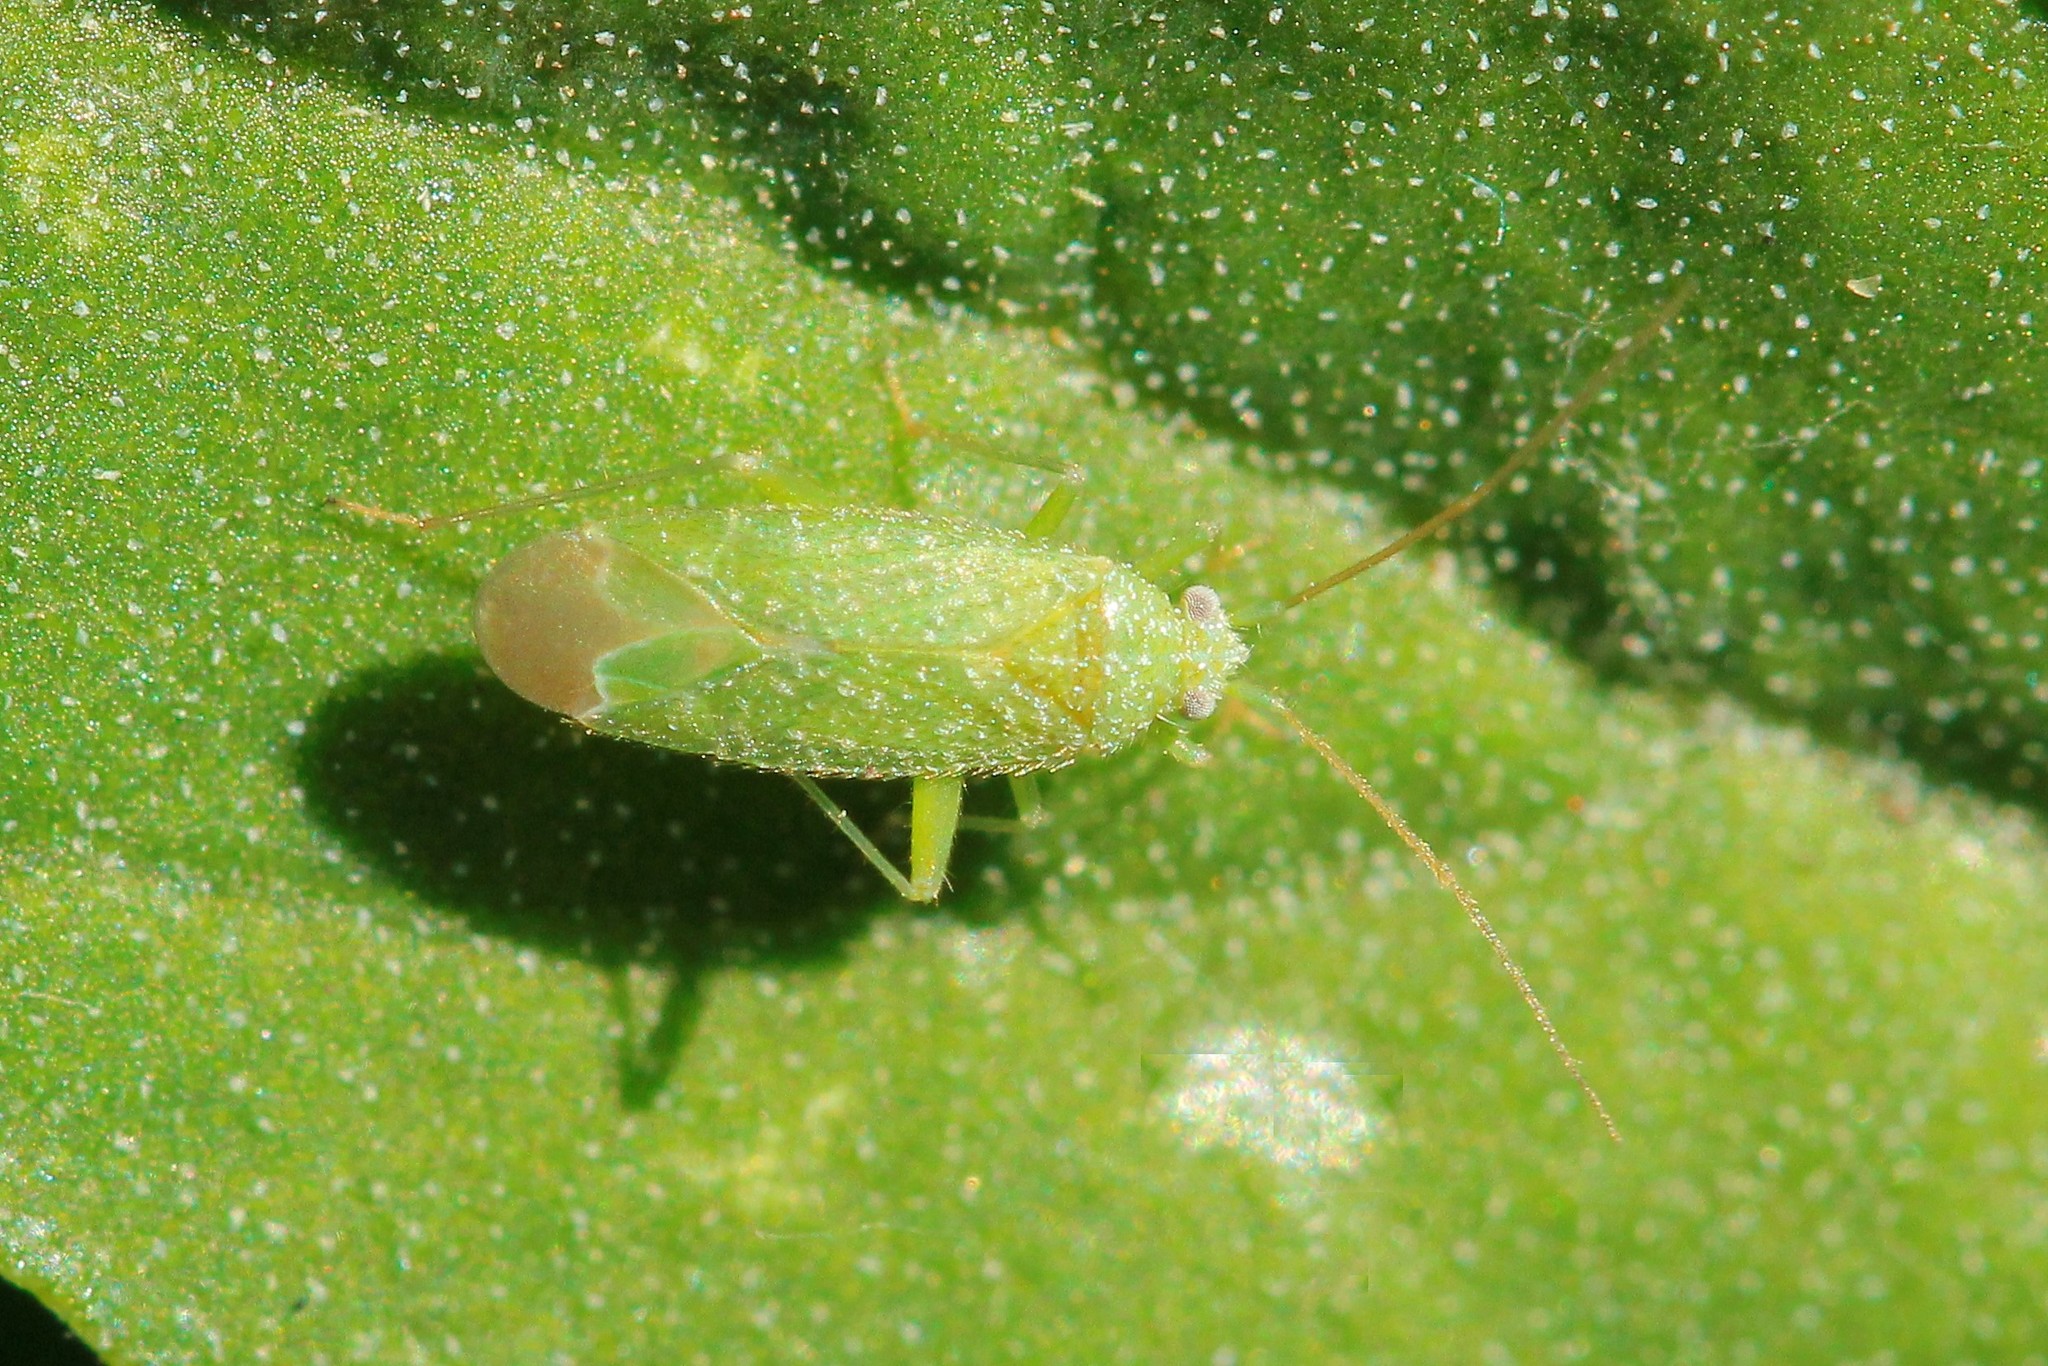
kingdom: Animalia
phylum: Arthropoda
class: Insecta
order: Hemiptera
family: Miridae
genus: Orthotylus
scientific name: Orthotylus flavosparsus
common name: Plant bug
